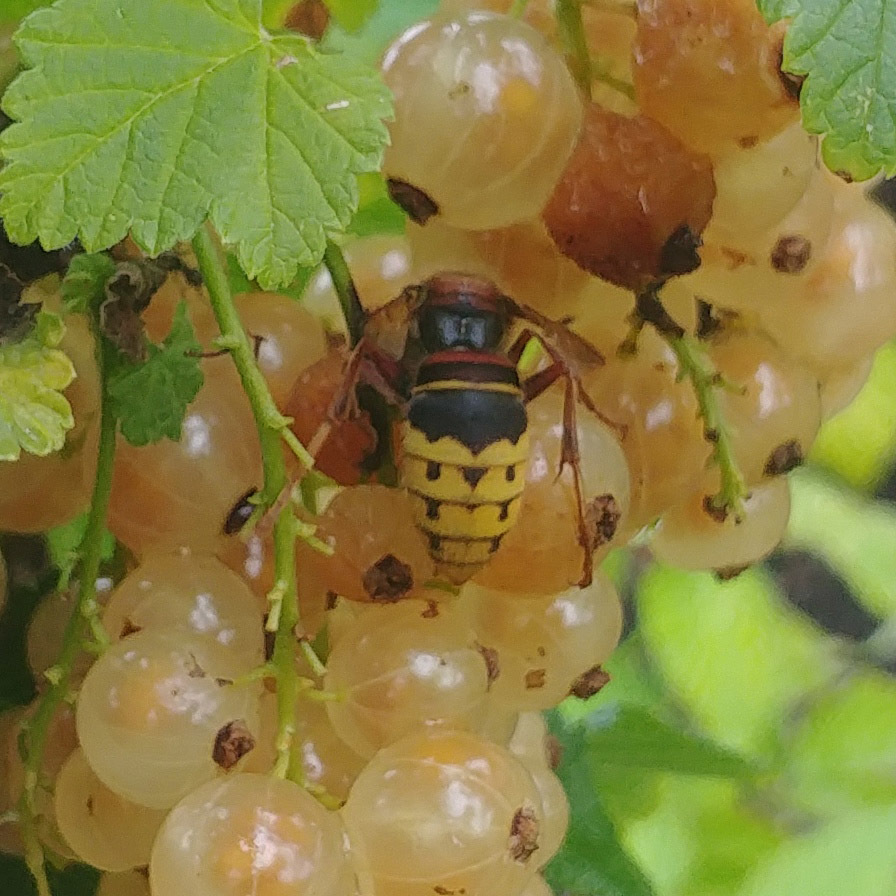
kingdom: Animalia
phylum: Arthropoda
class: Insecta
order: Hymenoptera
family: Vespidae
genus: Vespa
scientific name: Vespa crabro
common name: Hornet
